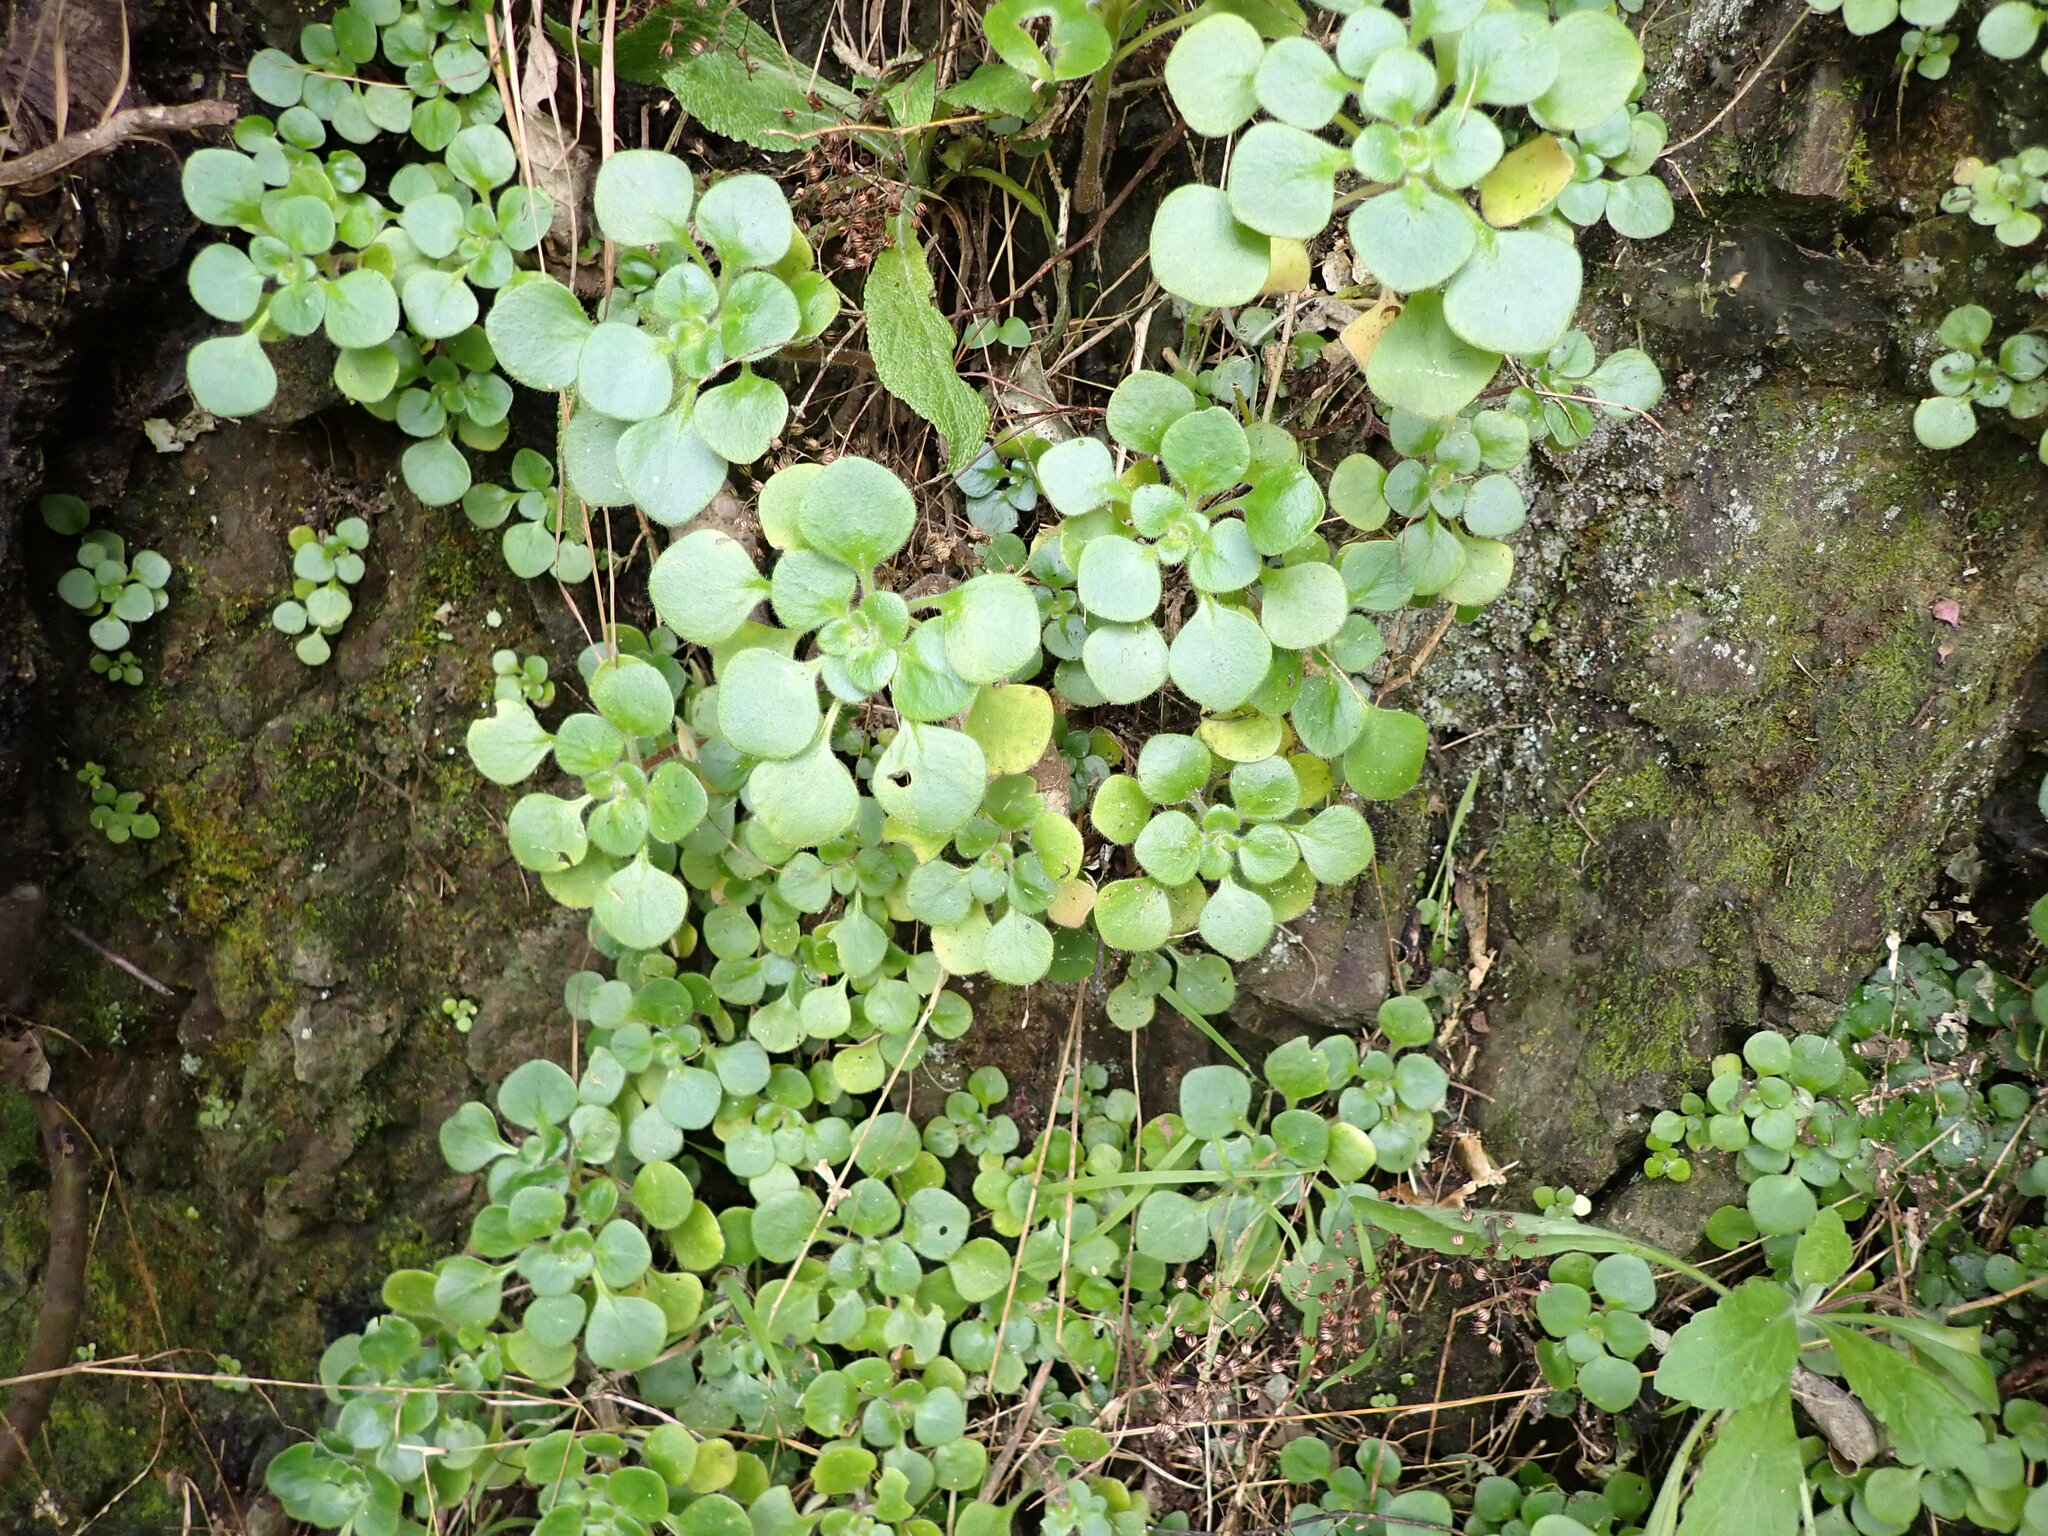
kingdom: Plantae
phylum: Tracheophyta
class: Magnoliopsida
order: Saxifragales
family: Crassulaceae
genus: Aichryson
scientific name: Aichryson laxum
